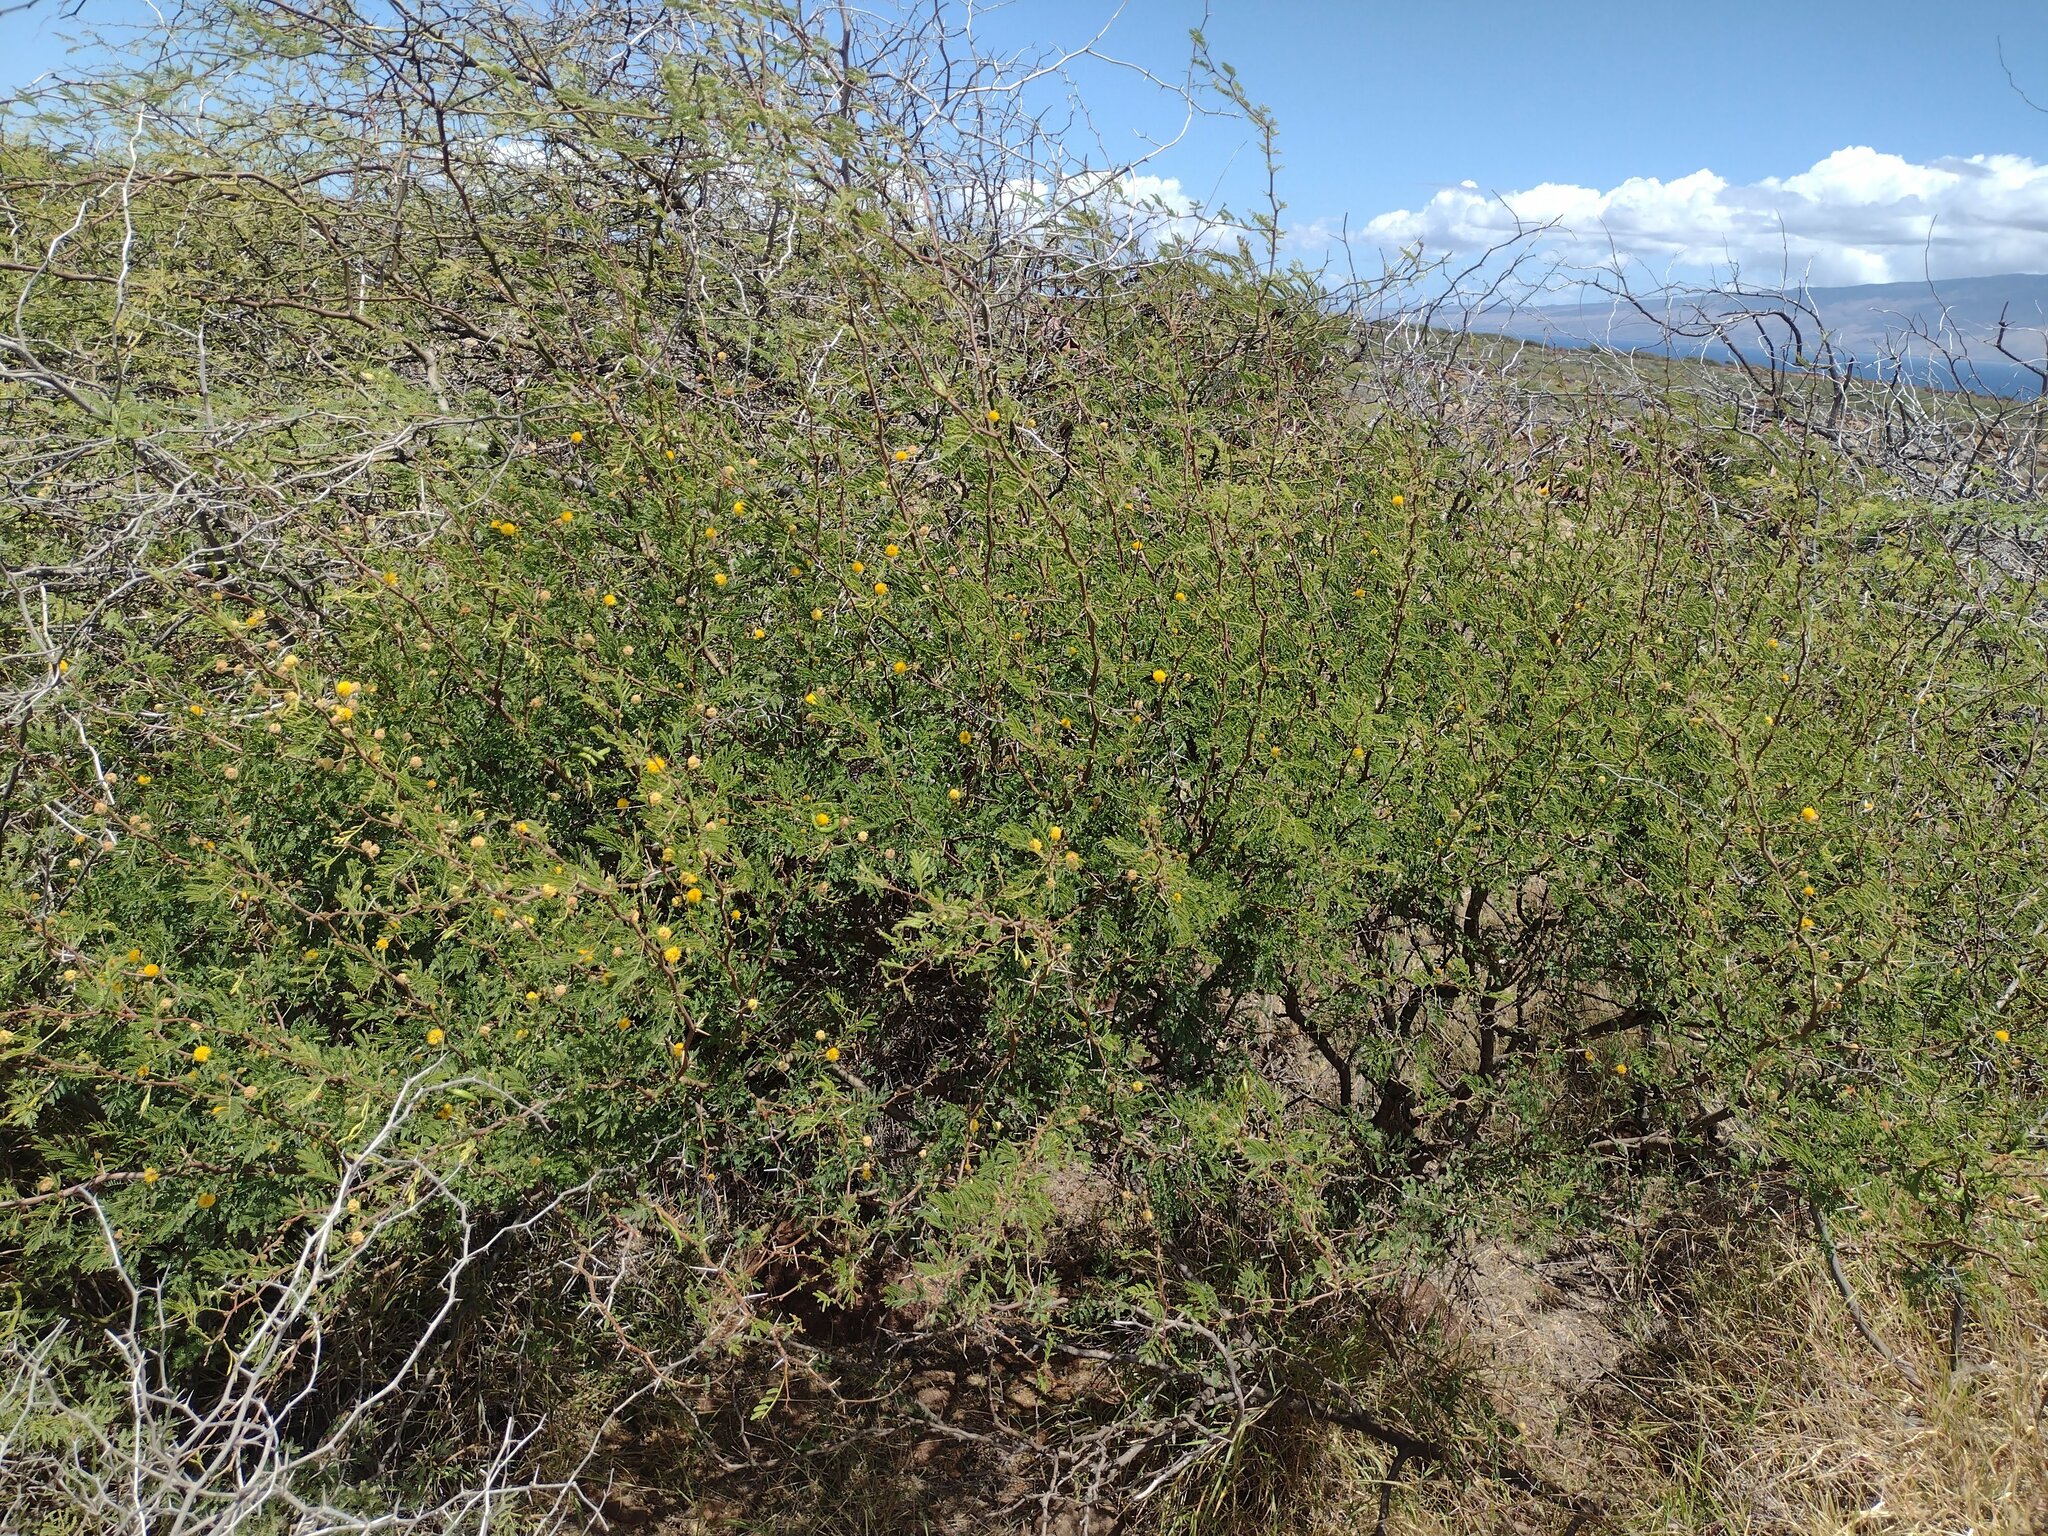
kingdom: Plantae
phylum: Tracheophyta
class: Magnoliopsida
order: Fabales
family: Fabaceae
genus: Vachellia
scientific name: Vachellia farnesiana
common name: Sweet acacia
